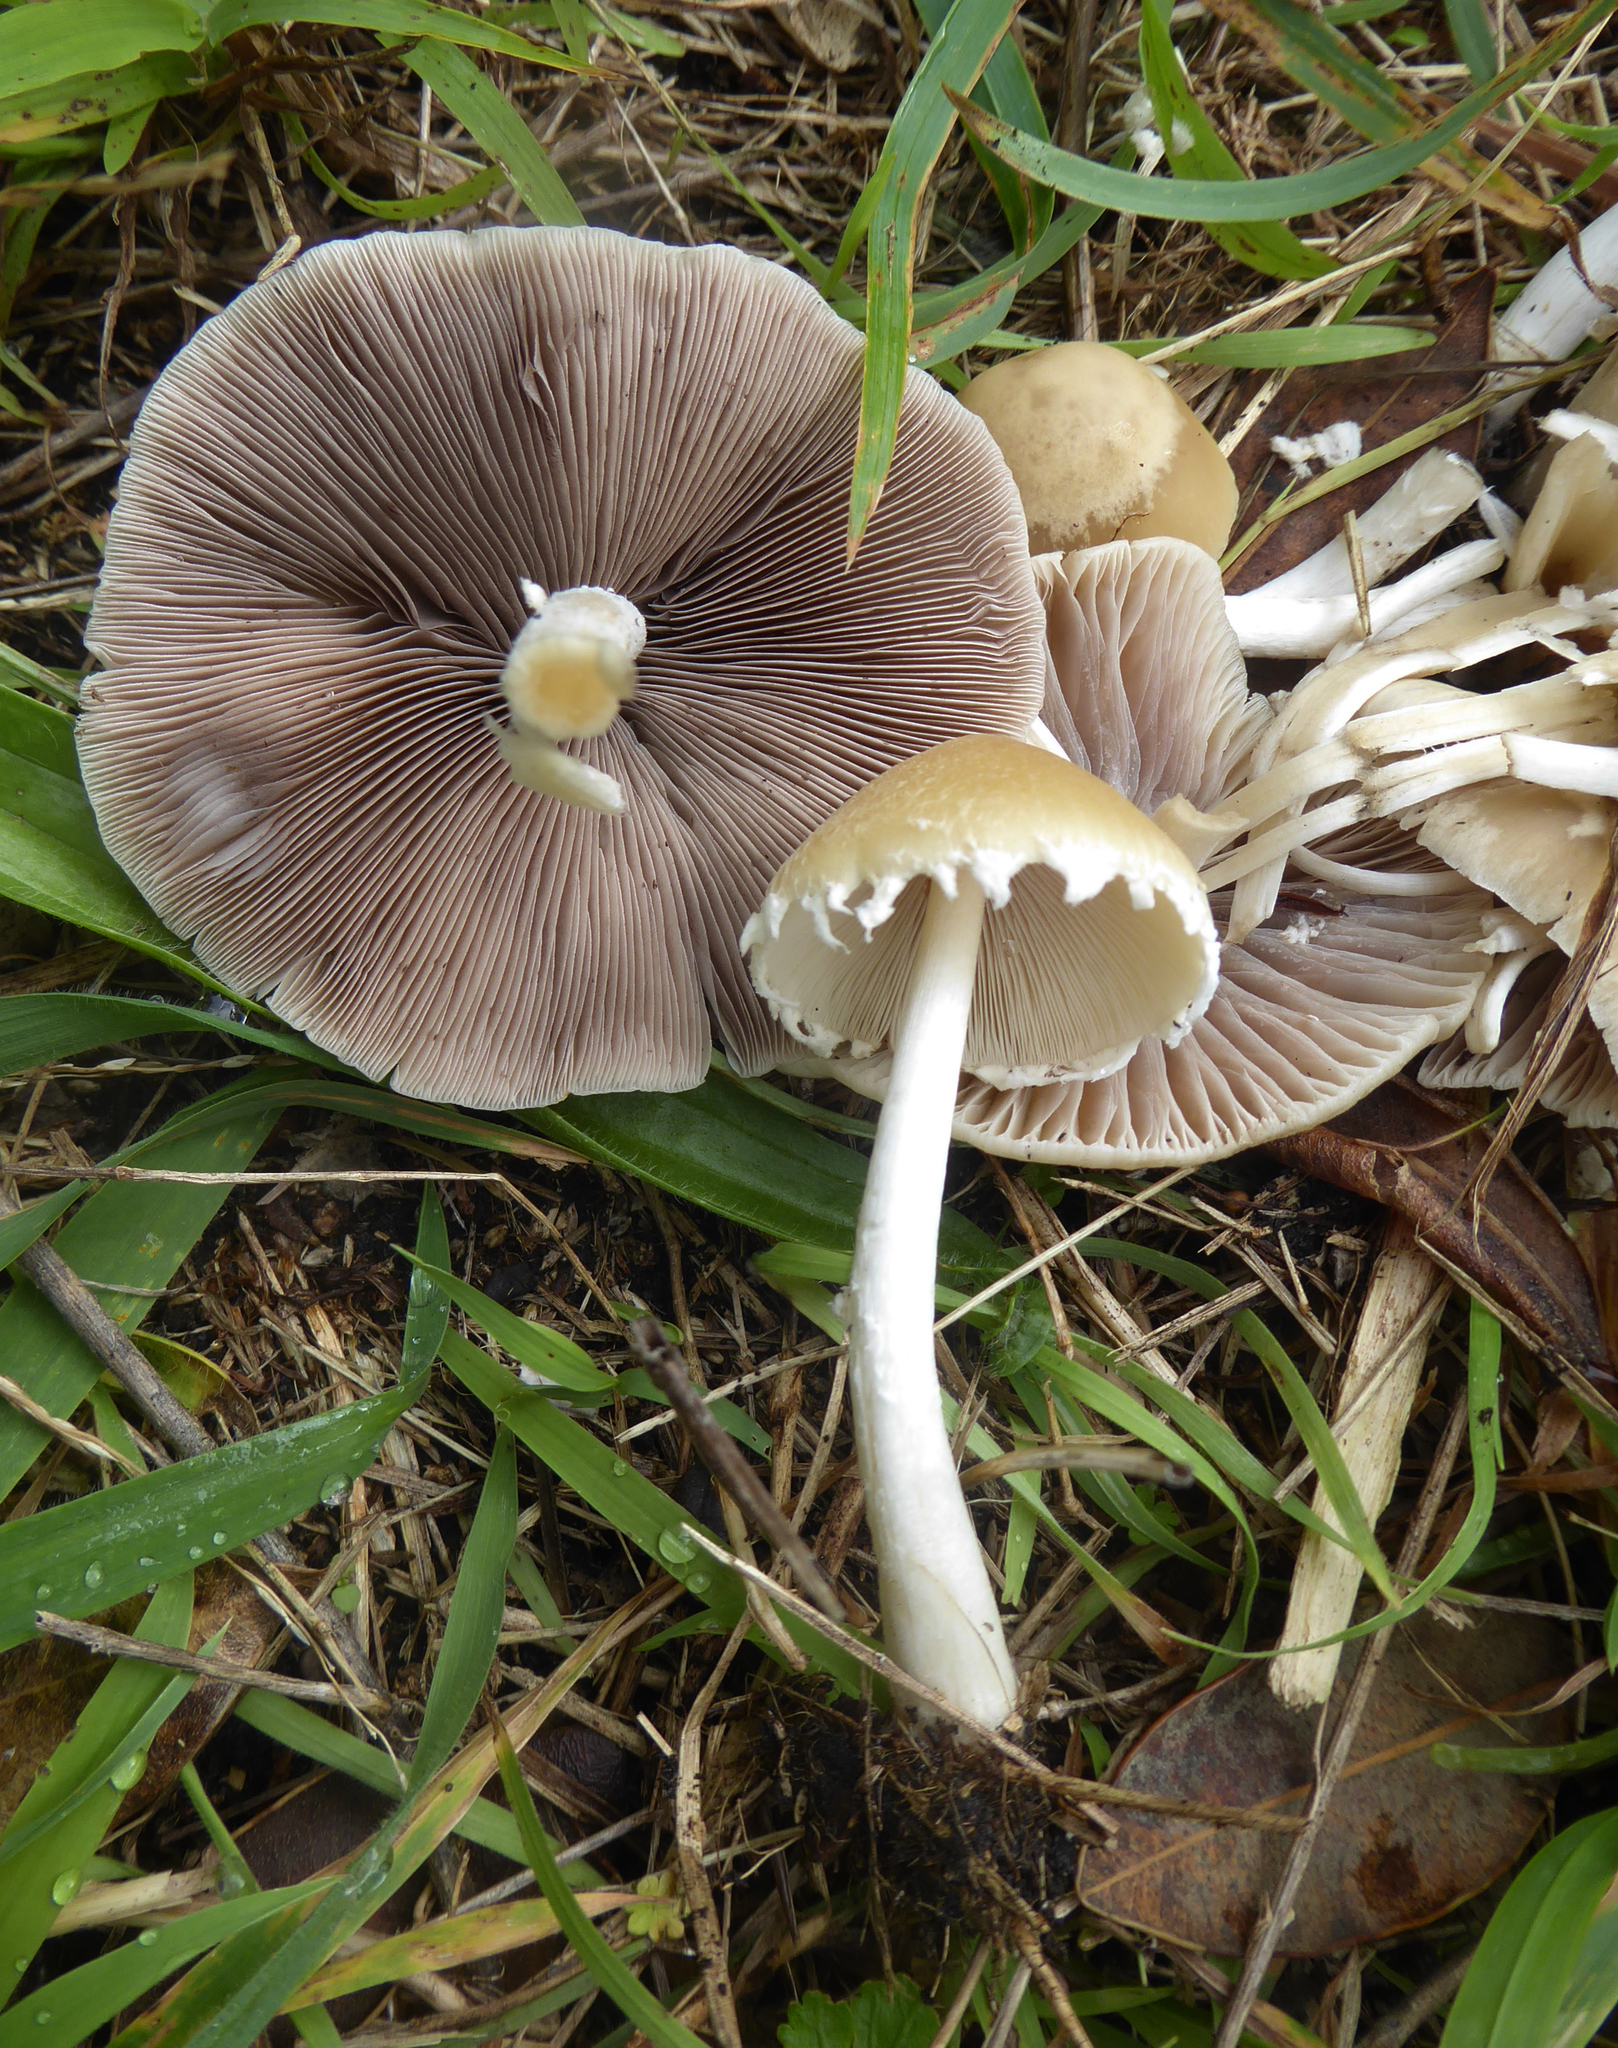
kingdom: Fungi
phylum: Basidiomycota
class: Agaricomycetes
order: Agaricales
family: Psathyrellaceae
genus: Candolleomyces
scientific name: Candolleomyces candolleanus
